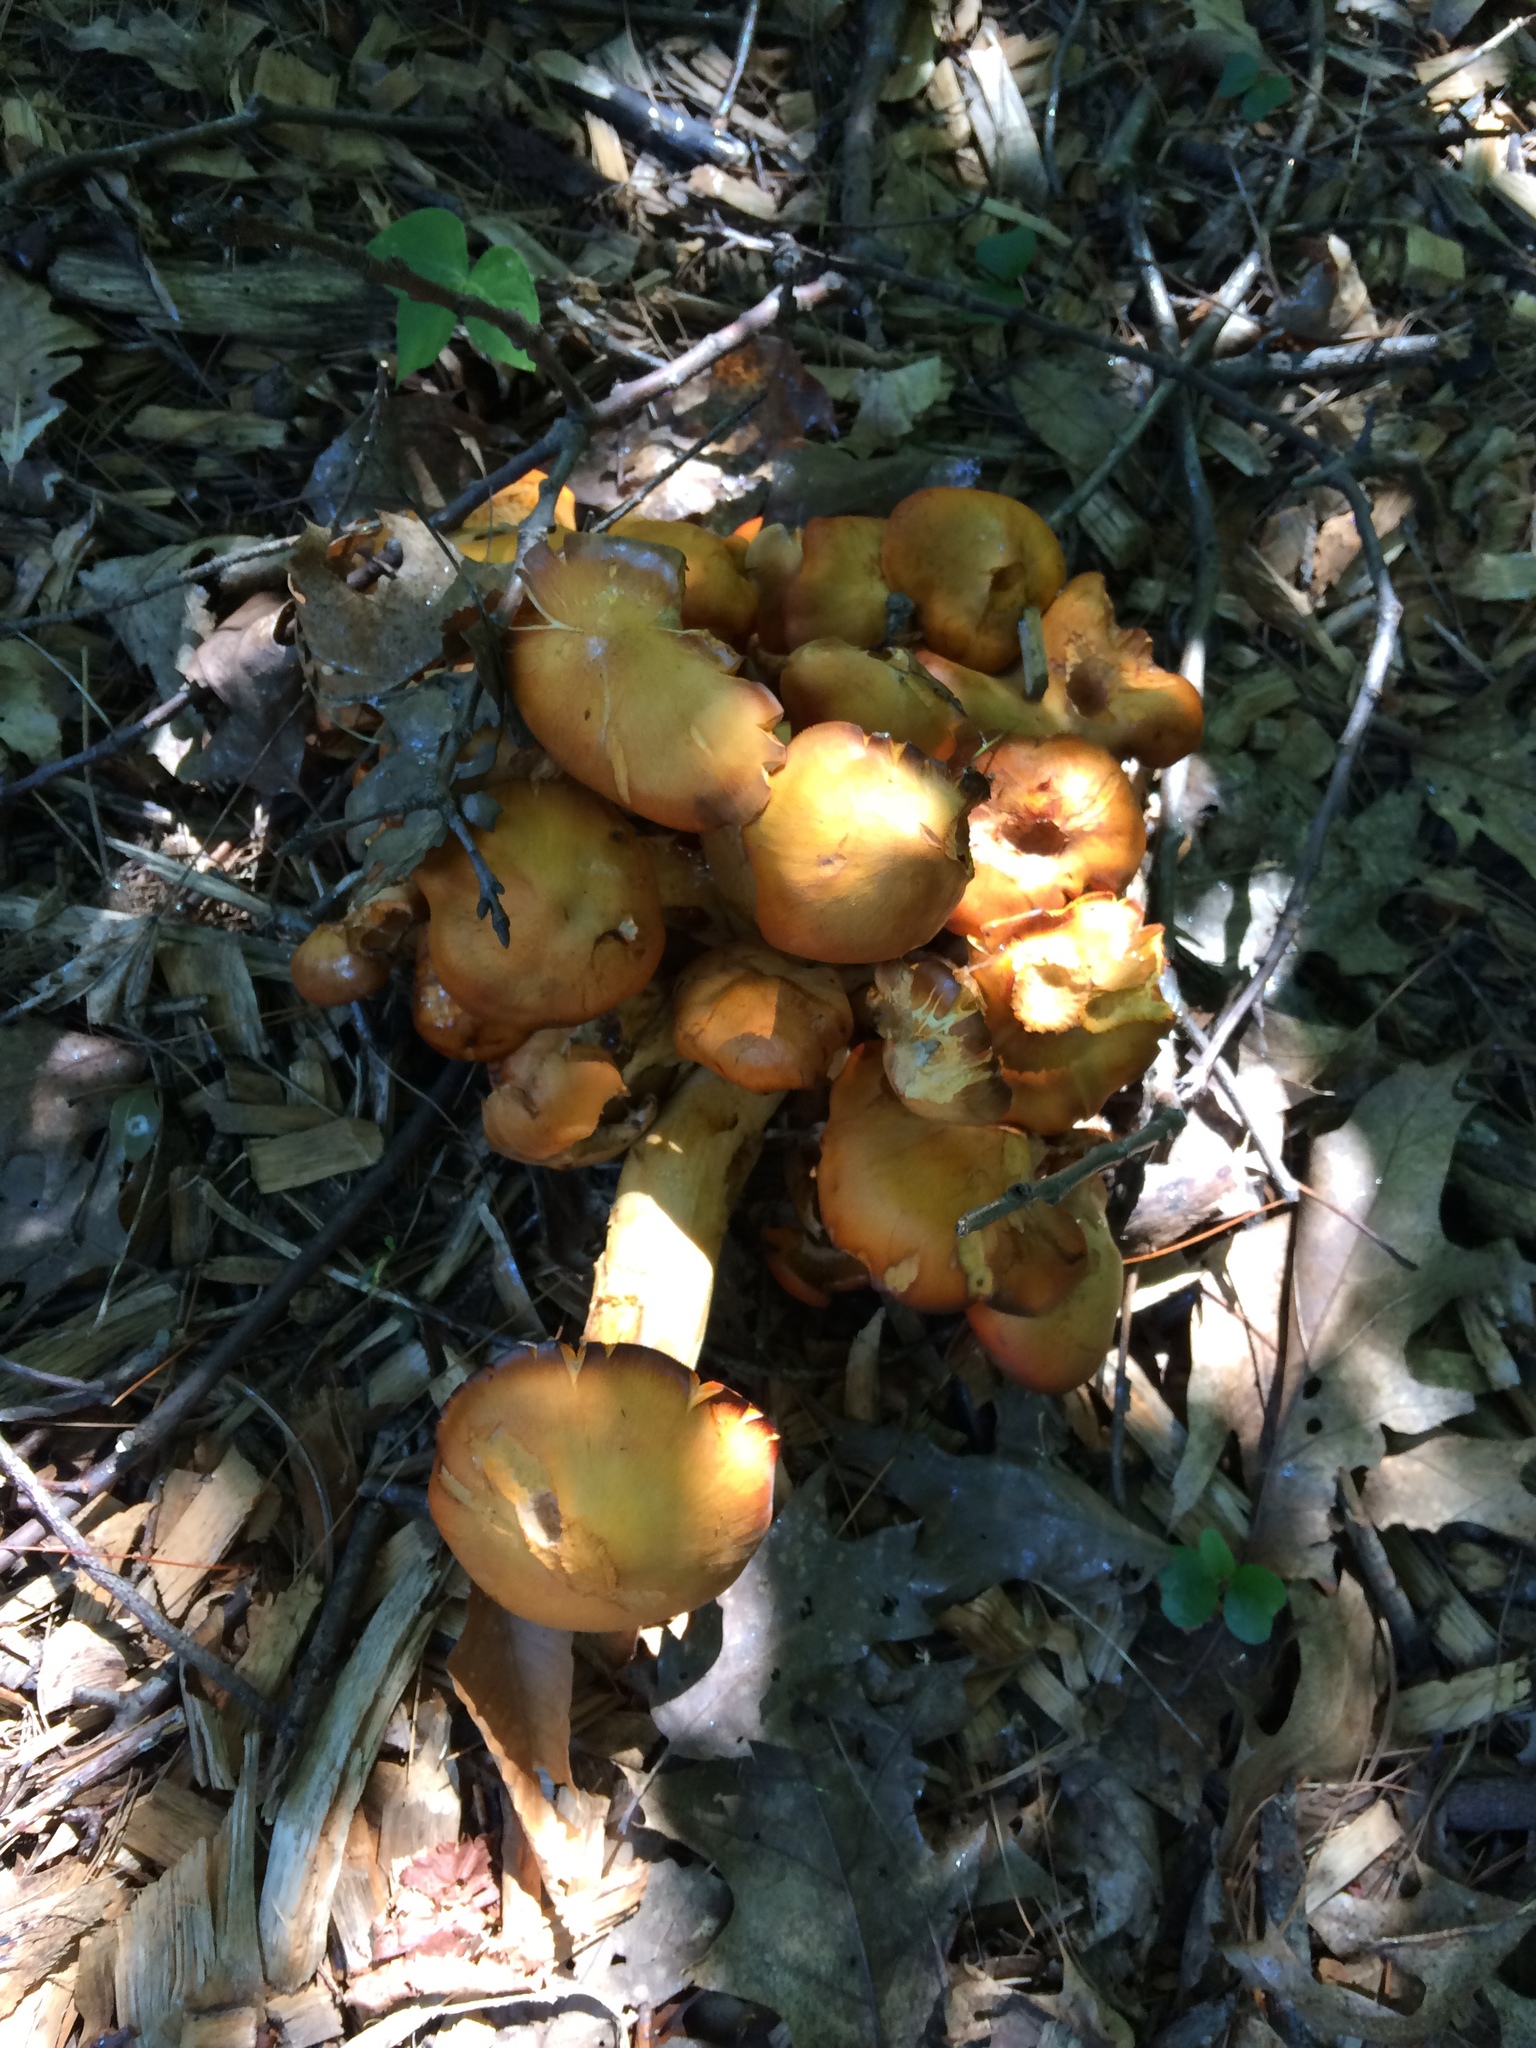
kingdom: Fungi
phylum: Basidiomycota
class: Agaricomycetes
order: Agaricales
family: Omphalotaceae
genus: Omphalotus
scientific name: Omphalotus illudens
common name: Jack o lantern
